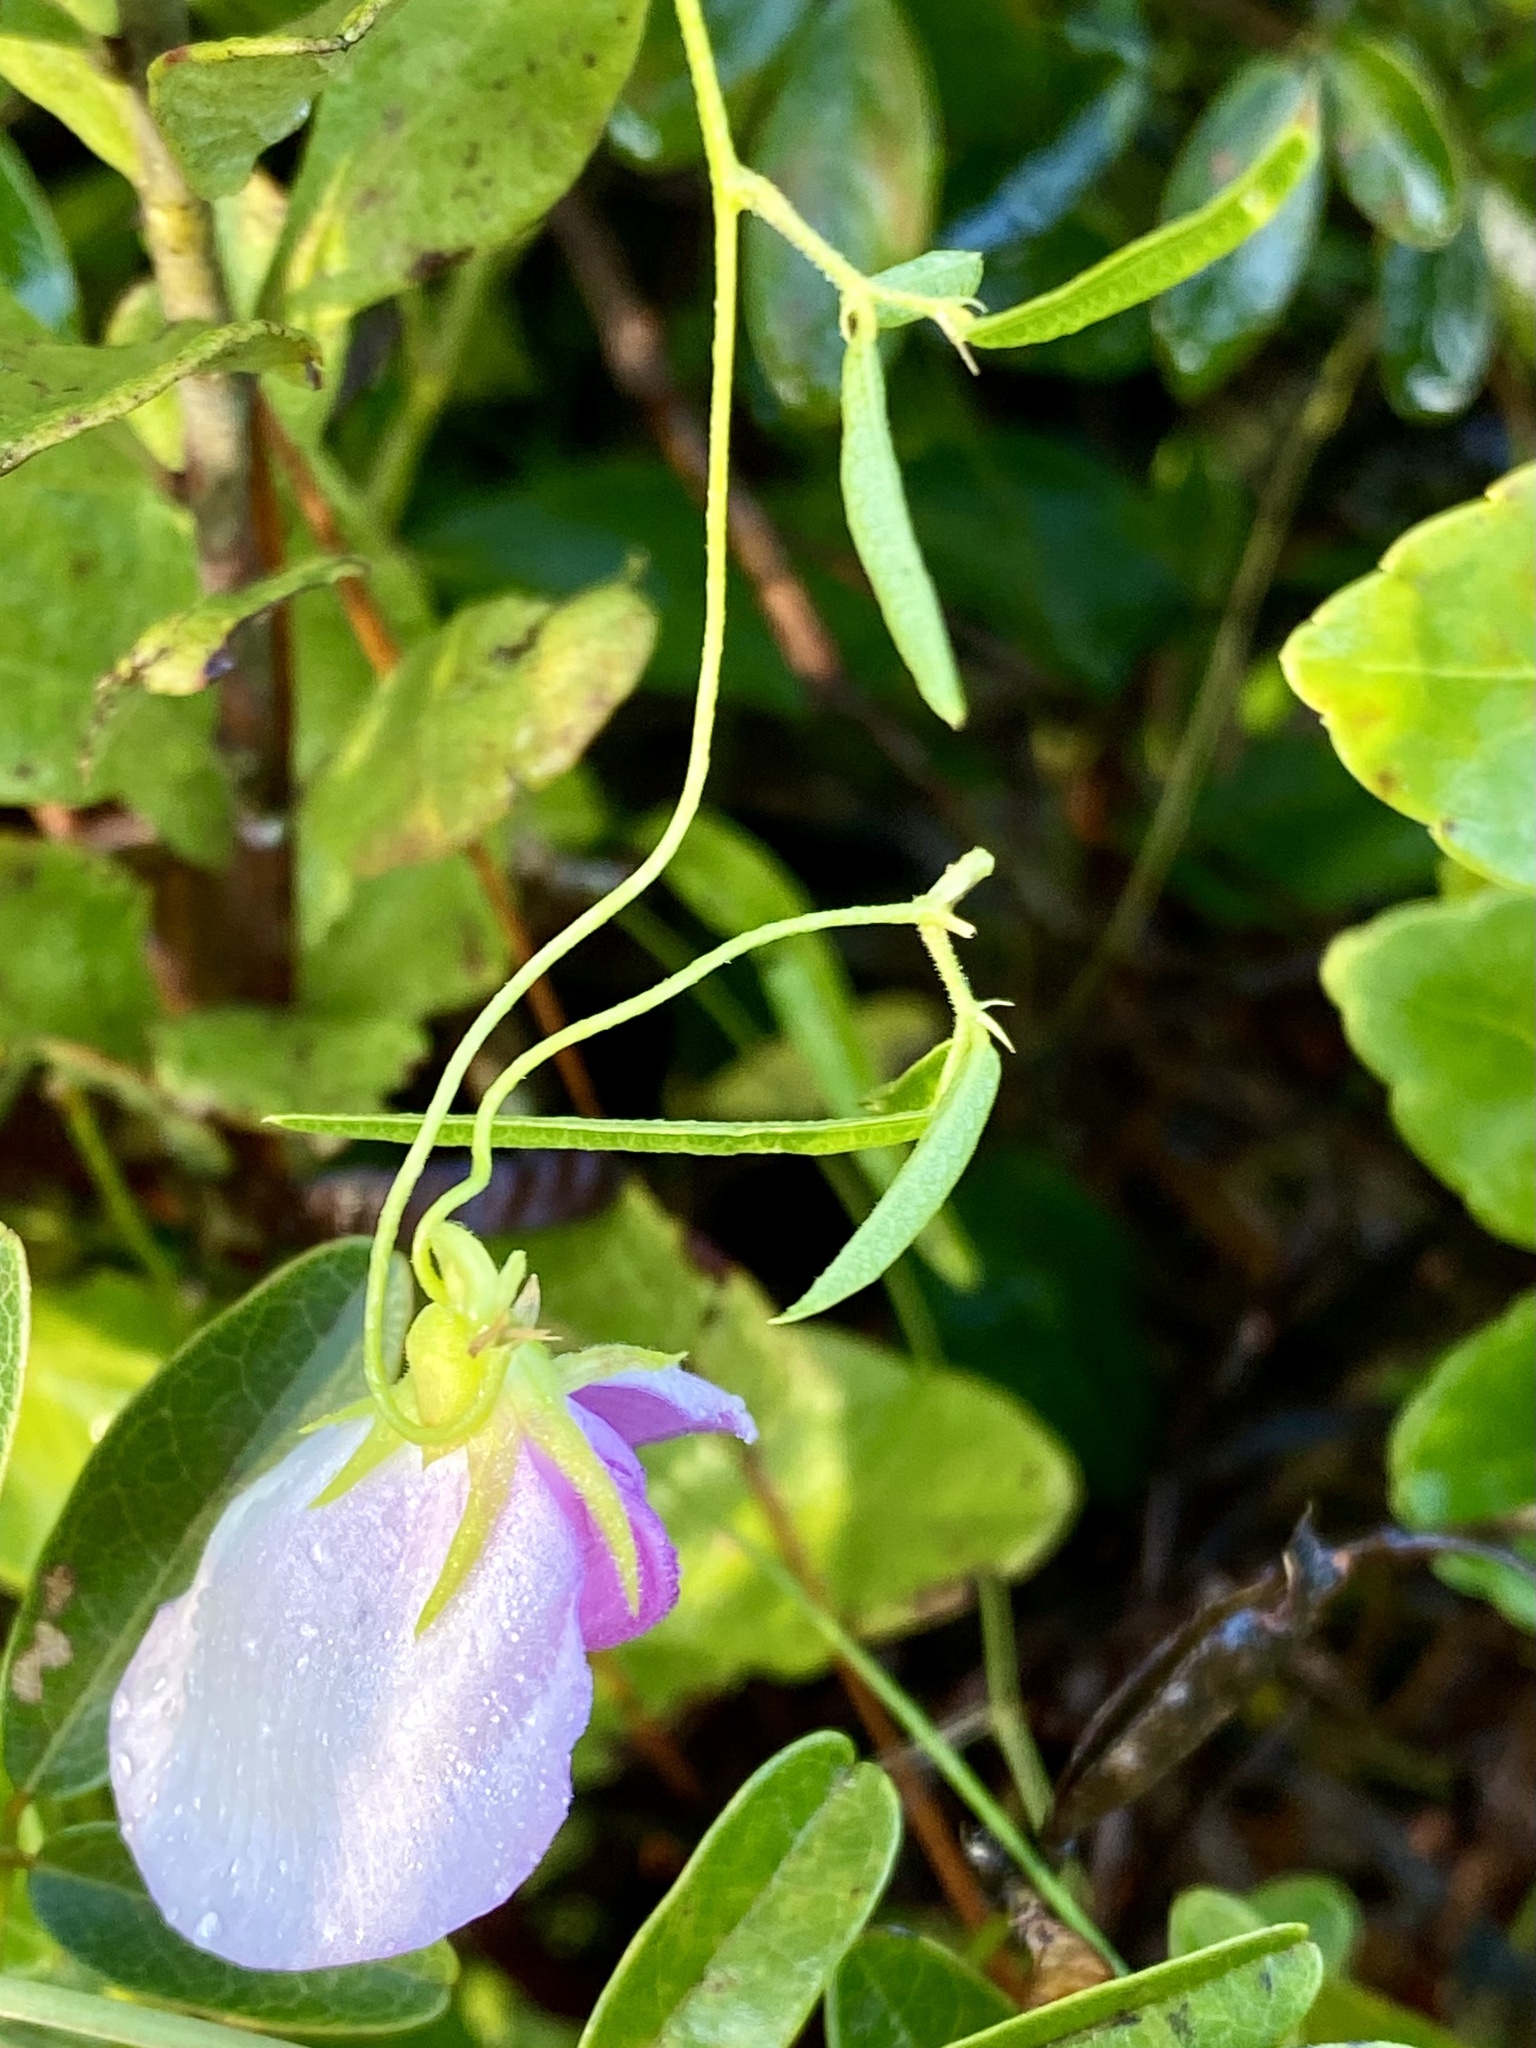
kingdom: Plantae
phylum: Tracheophyta
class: Magnoliopsida
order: Fabales
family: Fabaceae
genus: Centrosema
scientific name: Centrosema virginianum
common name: Butterfly-pea
